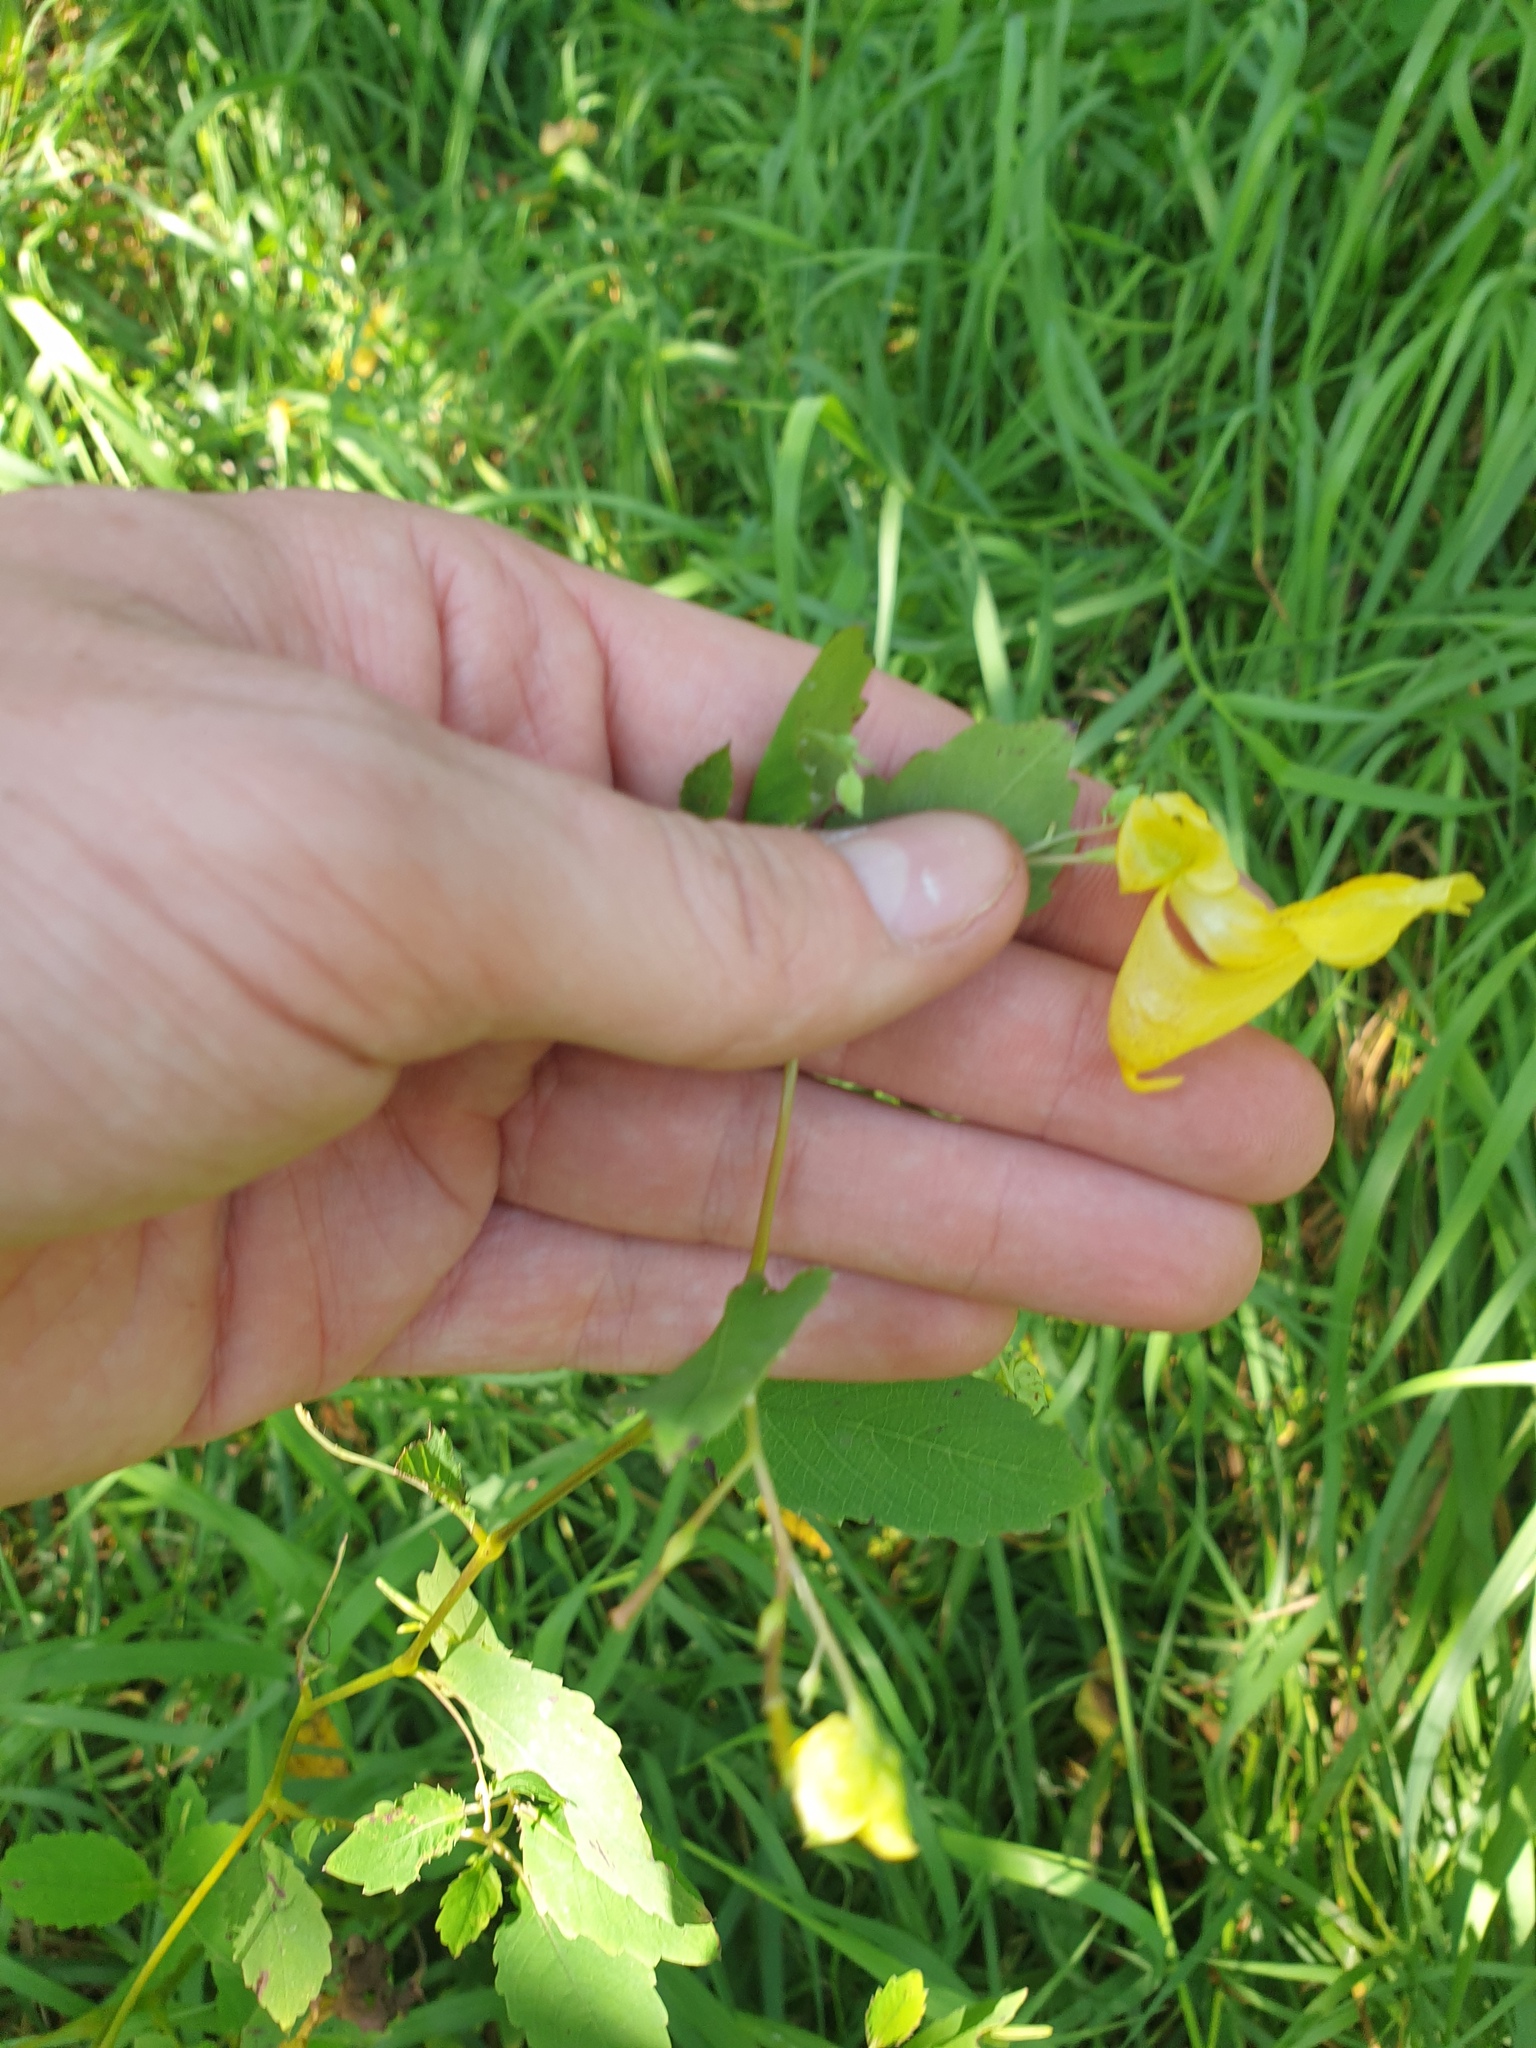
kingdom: Plantae
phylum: Tracheophyta
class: Magnoliopsida
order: Ericales
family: Balsaminaceae
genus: Impatiens
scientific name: Impatiens pallida
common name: Pale snapweed
